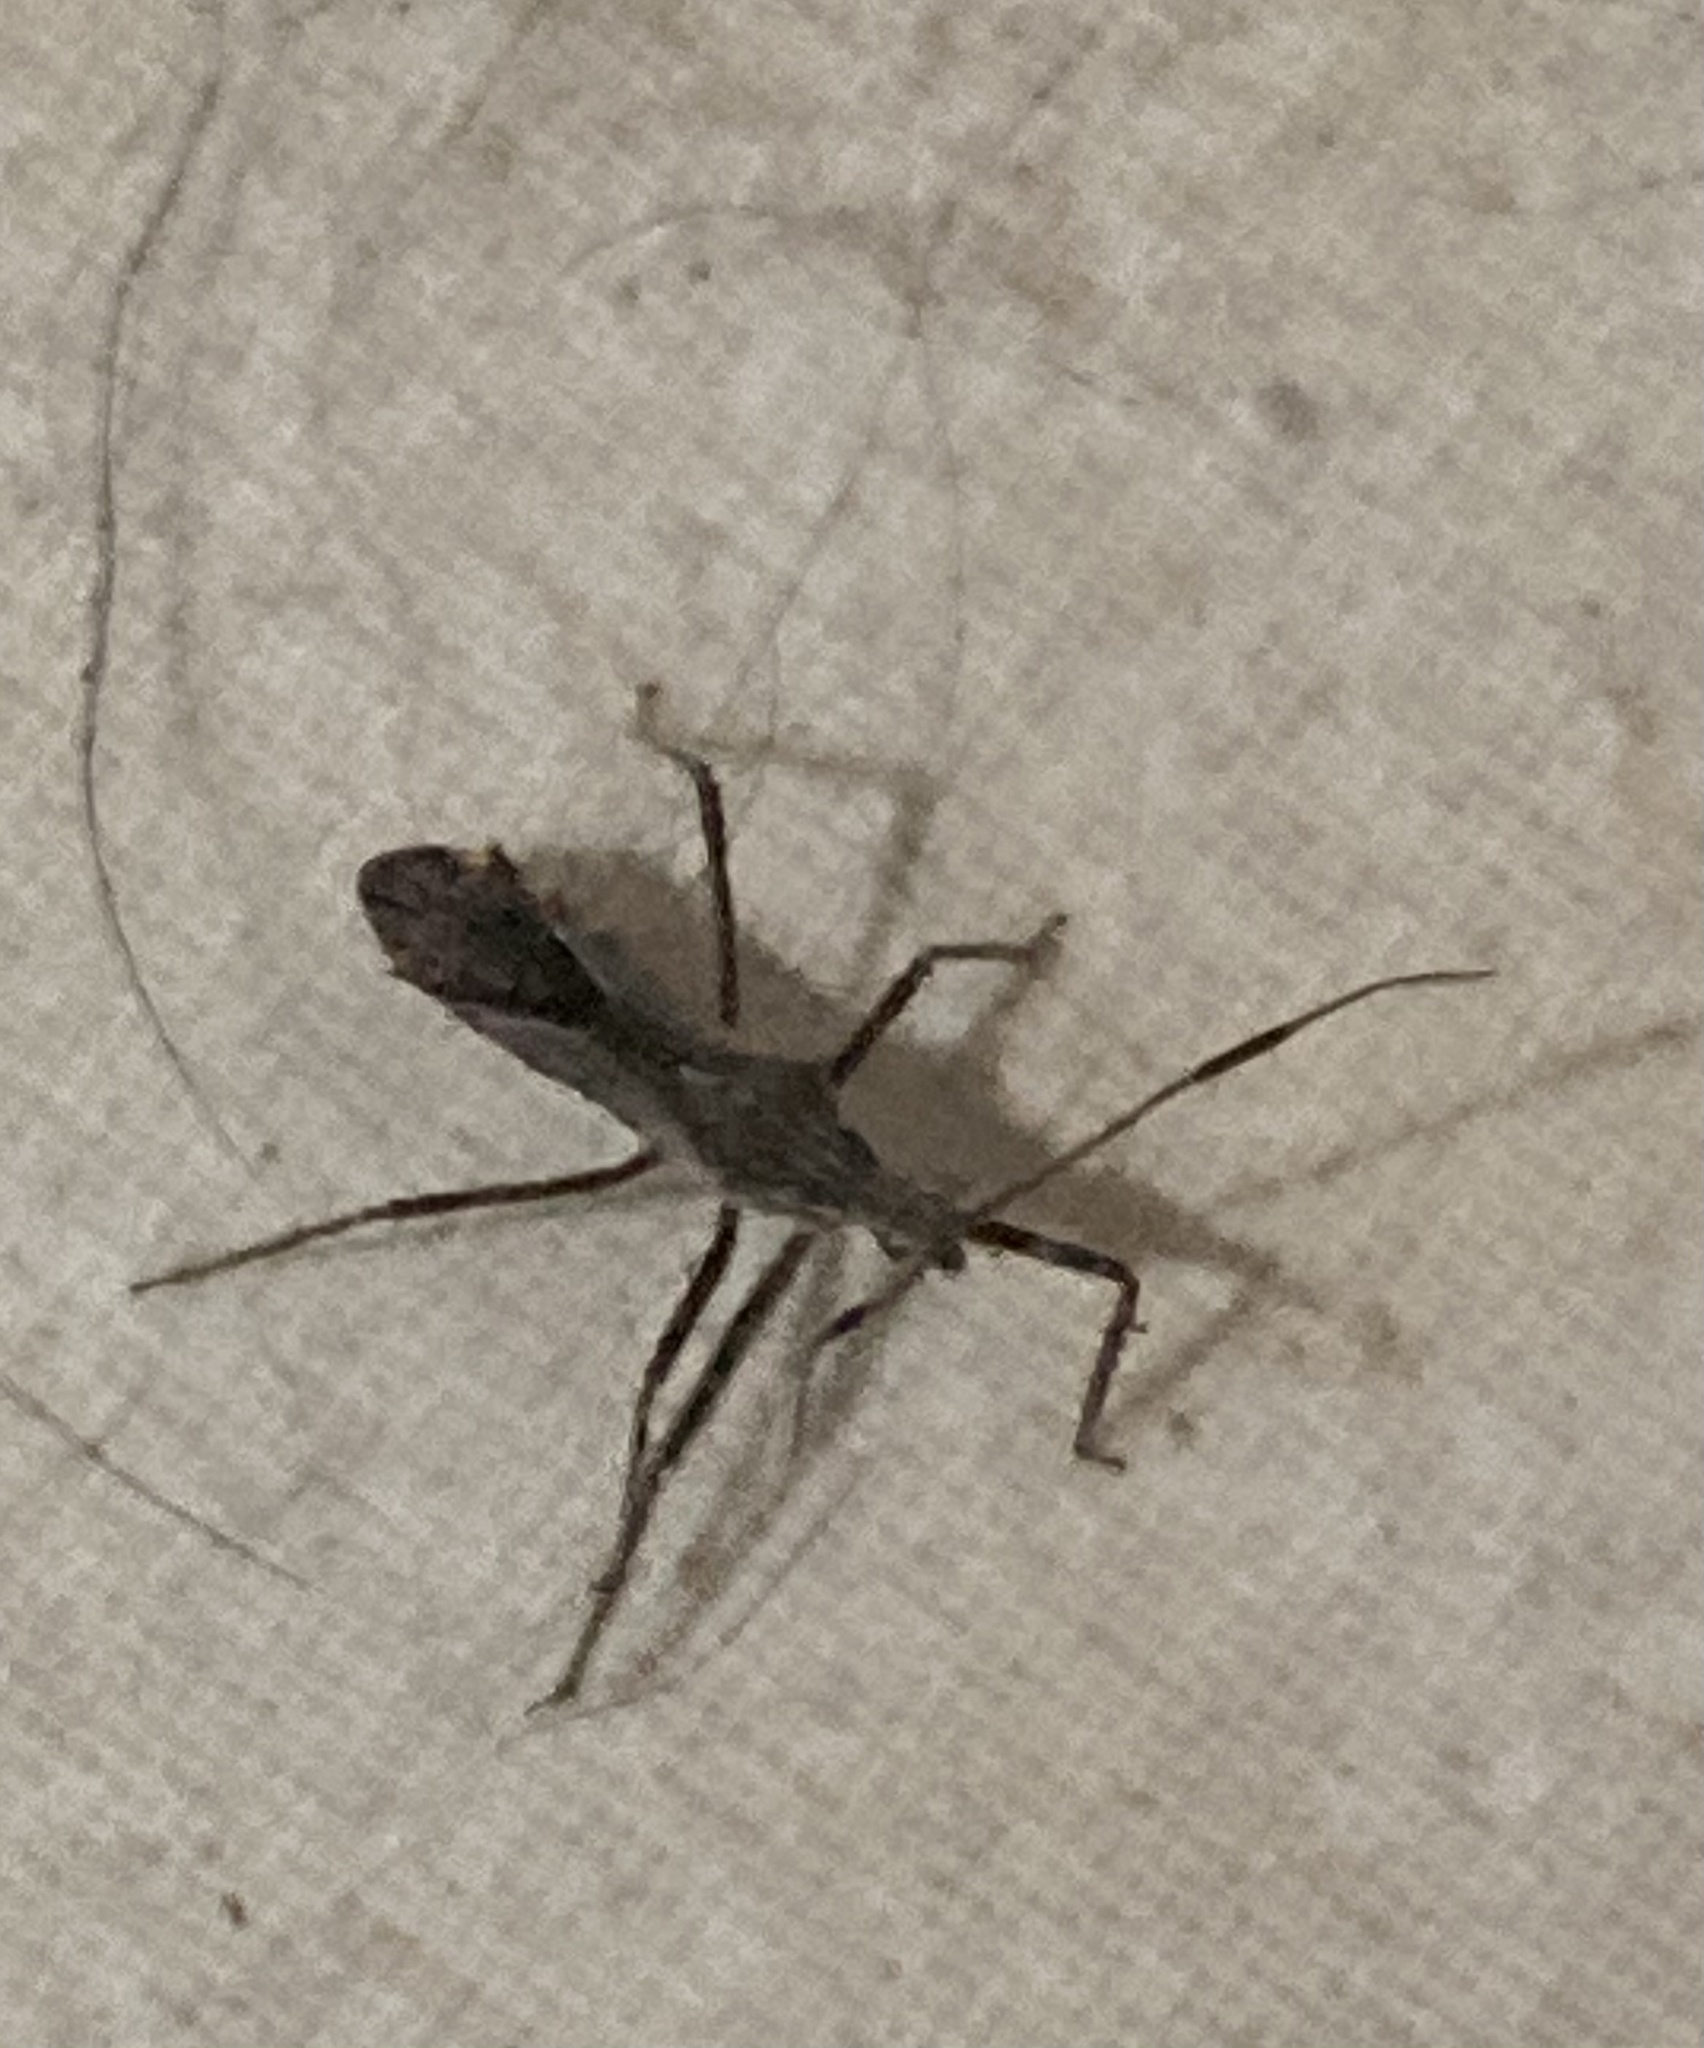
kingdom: Animalia
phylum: Arthropoda
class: Insecta
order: Hemiptera
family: Reduviidae
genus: Atrachelus
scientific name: Atrachelus cinereus
